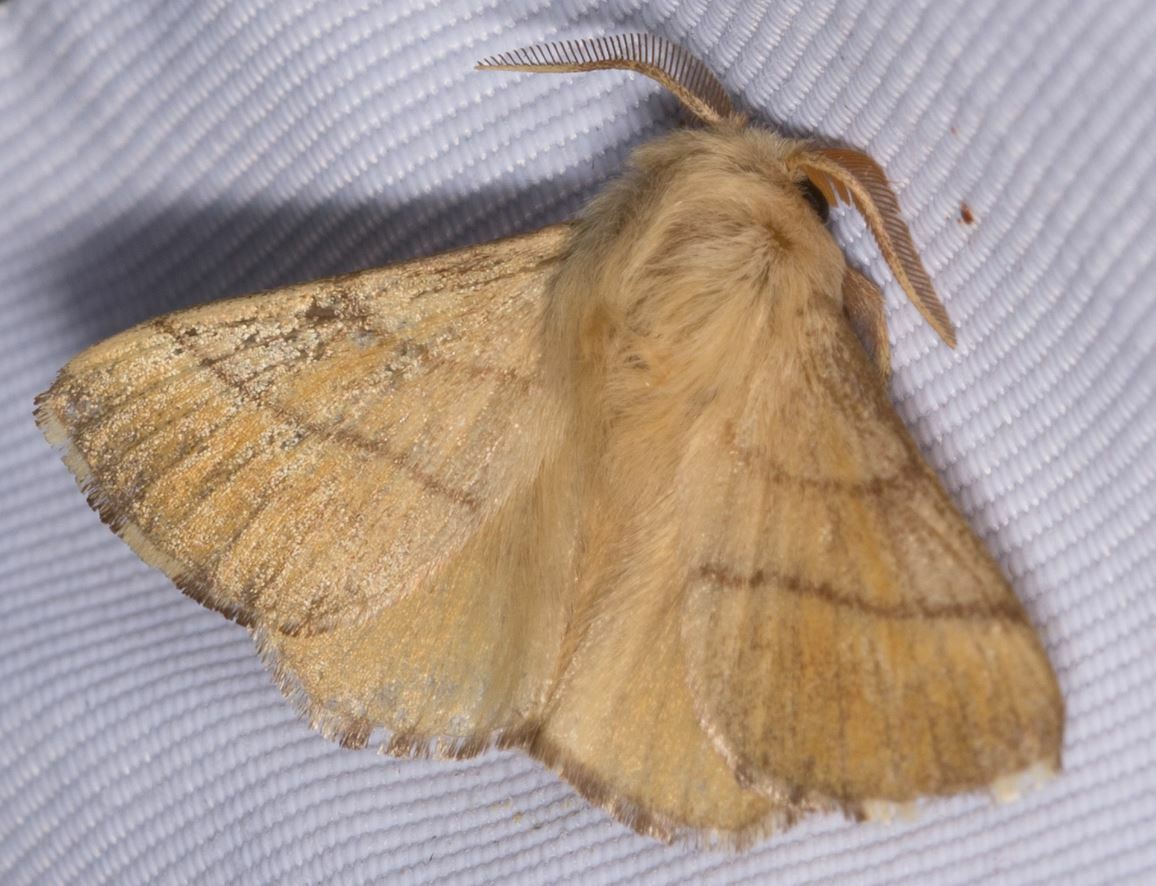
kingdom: Animalia
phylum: Arthropoda
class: Insecta
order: Lepidoptera
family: Lasiocampidae
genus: Malacosoma
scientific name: Malacosoma neustria
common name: The lackey
